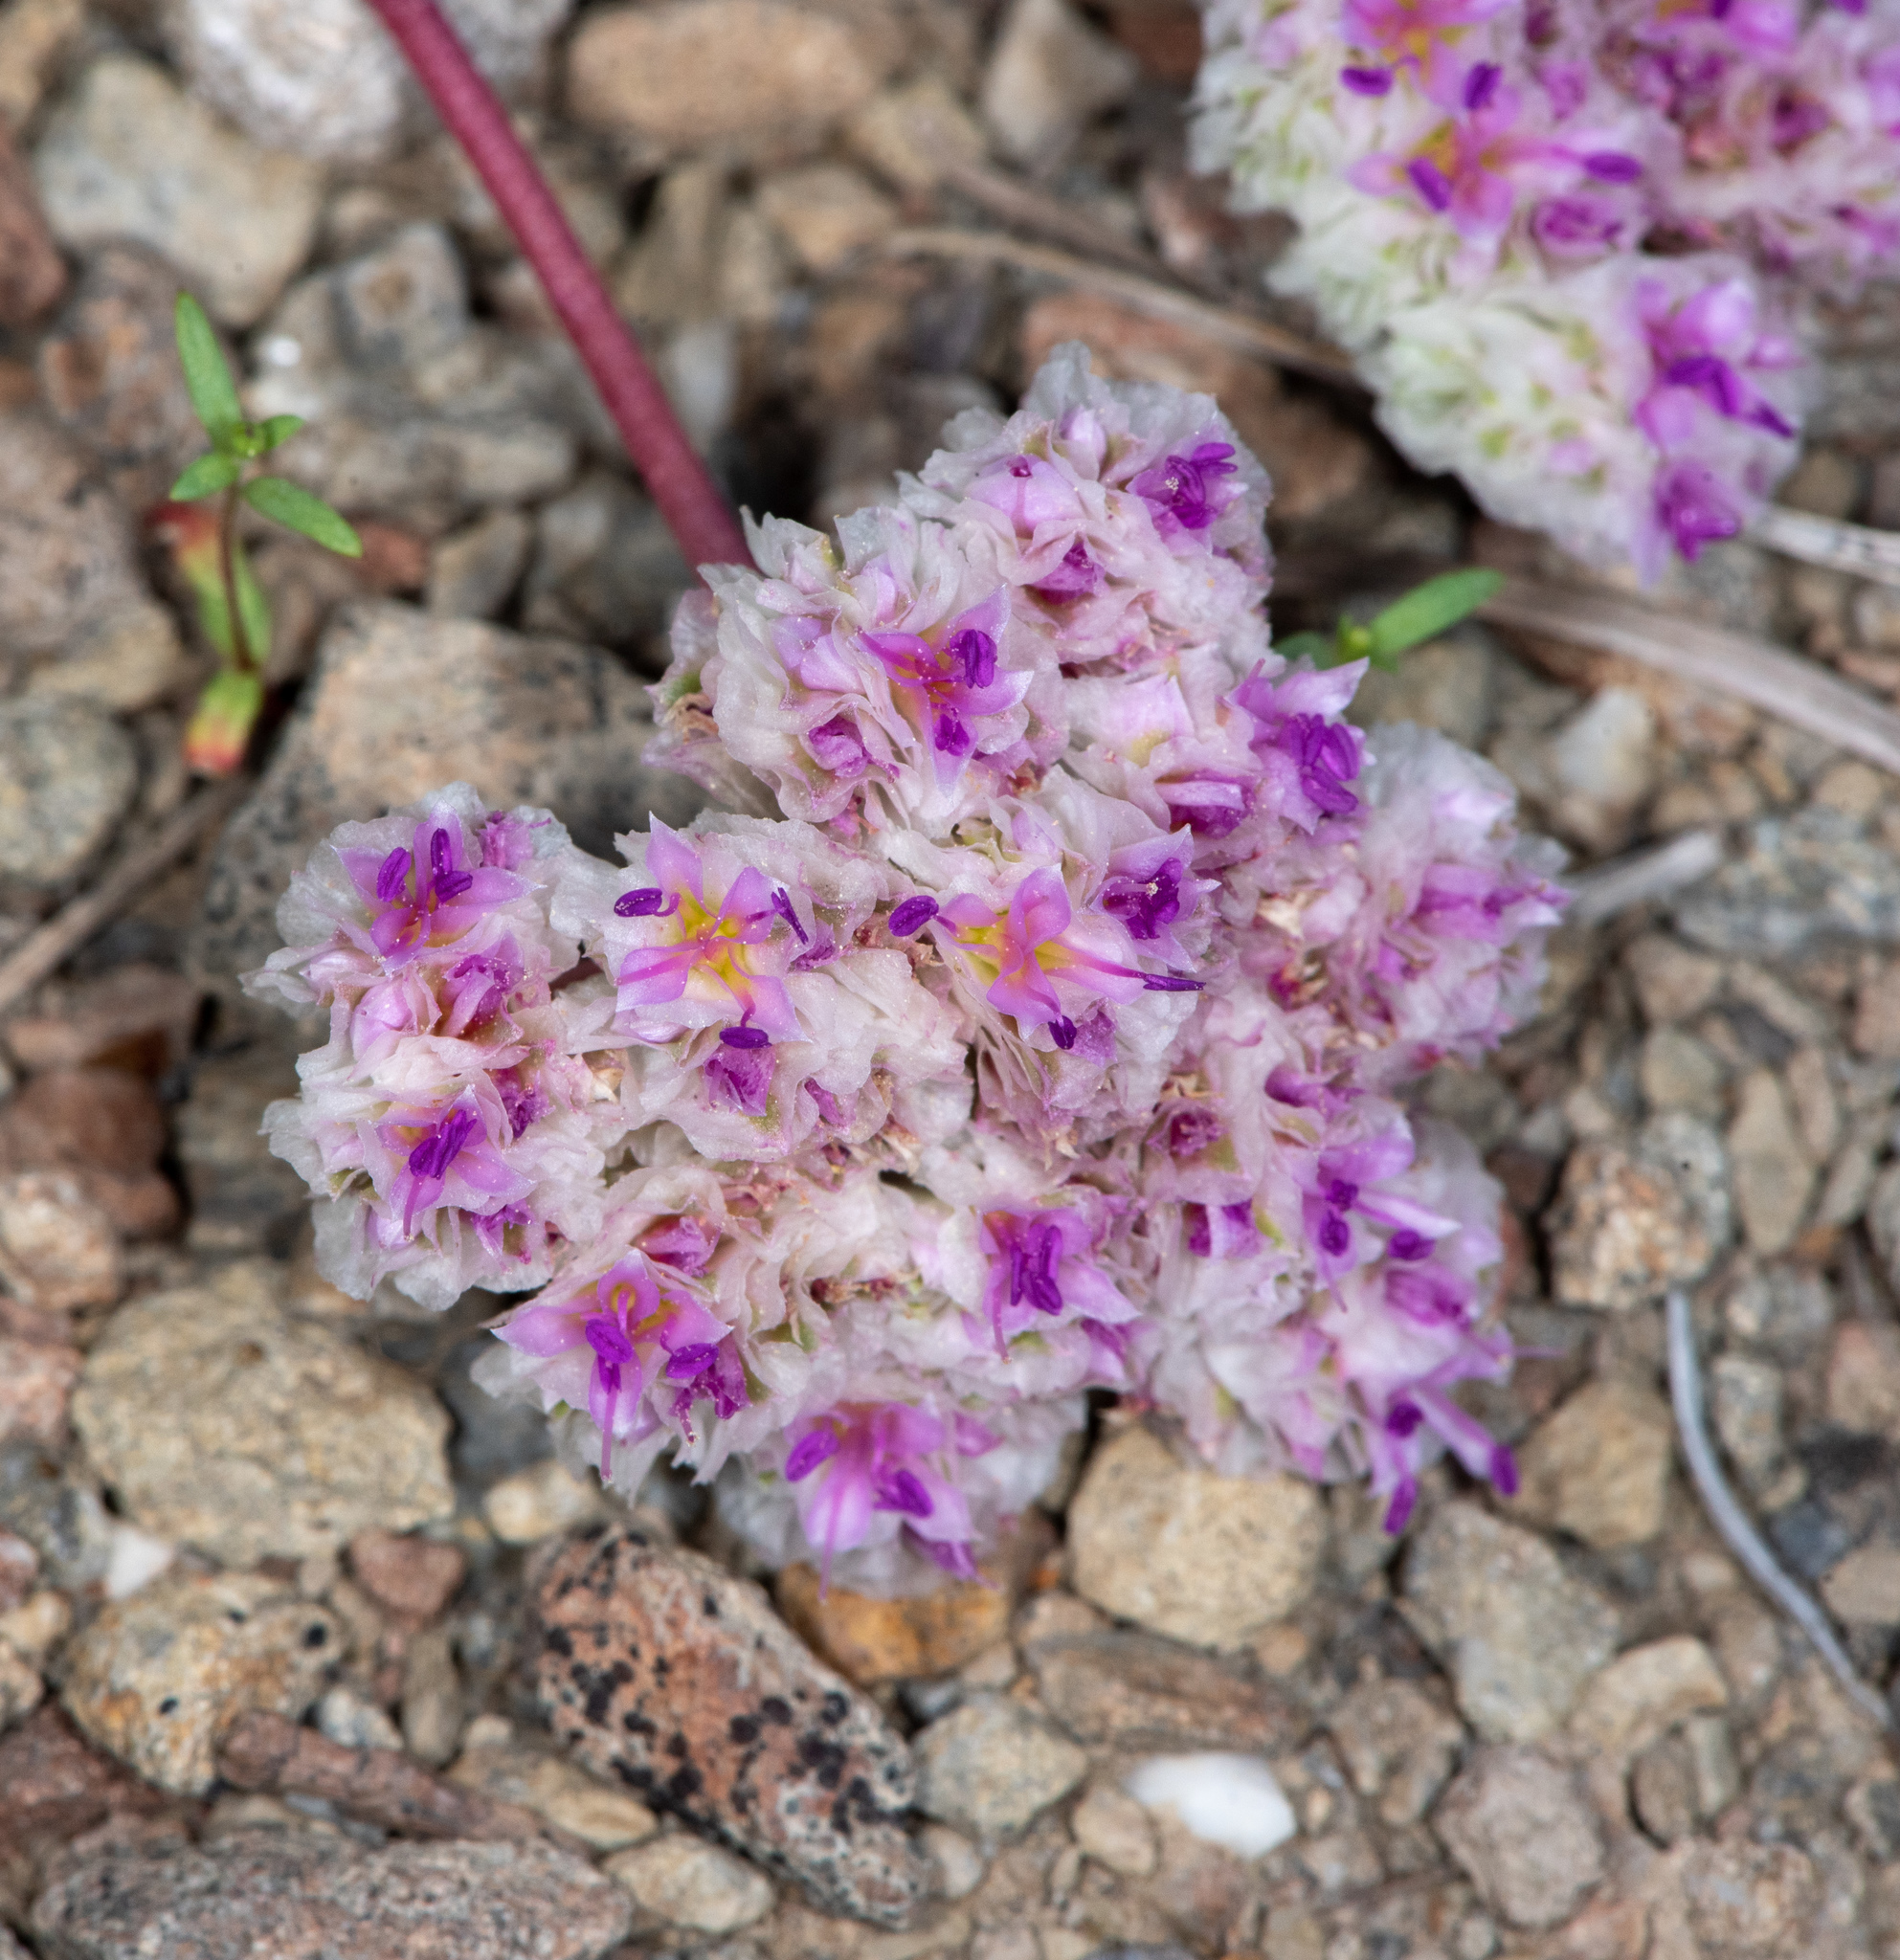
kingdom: Plantae
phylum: Tracheophyta
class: Magnoliopsida
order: Caryophyllales
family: Montiaceae
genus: Calyptridium
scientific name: Calyptridium umbellatum
